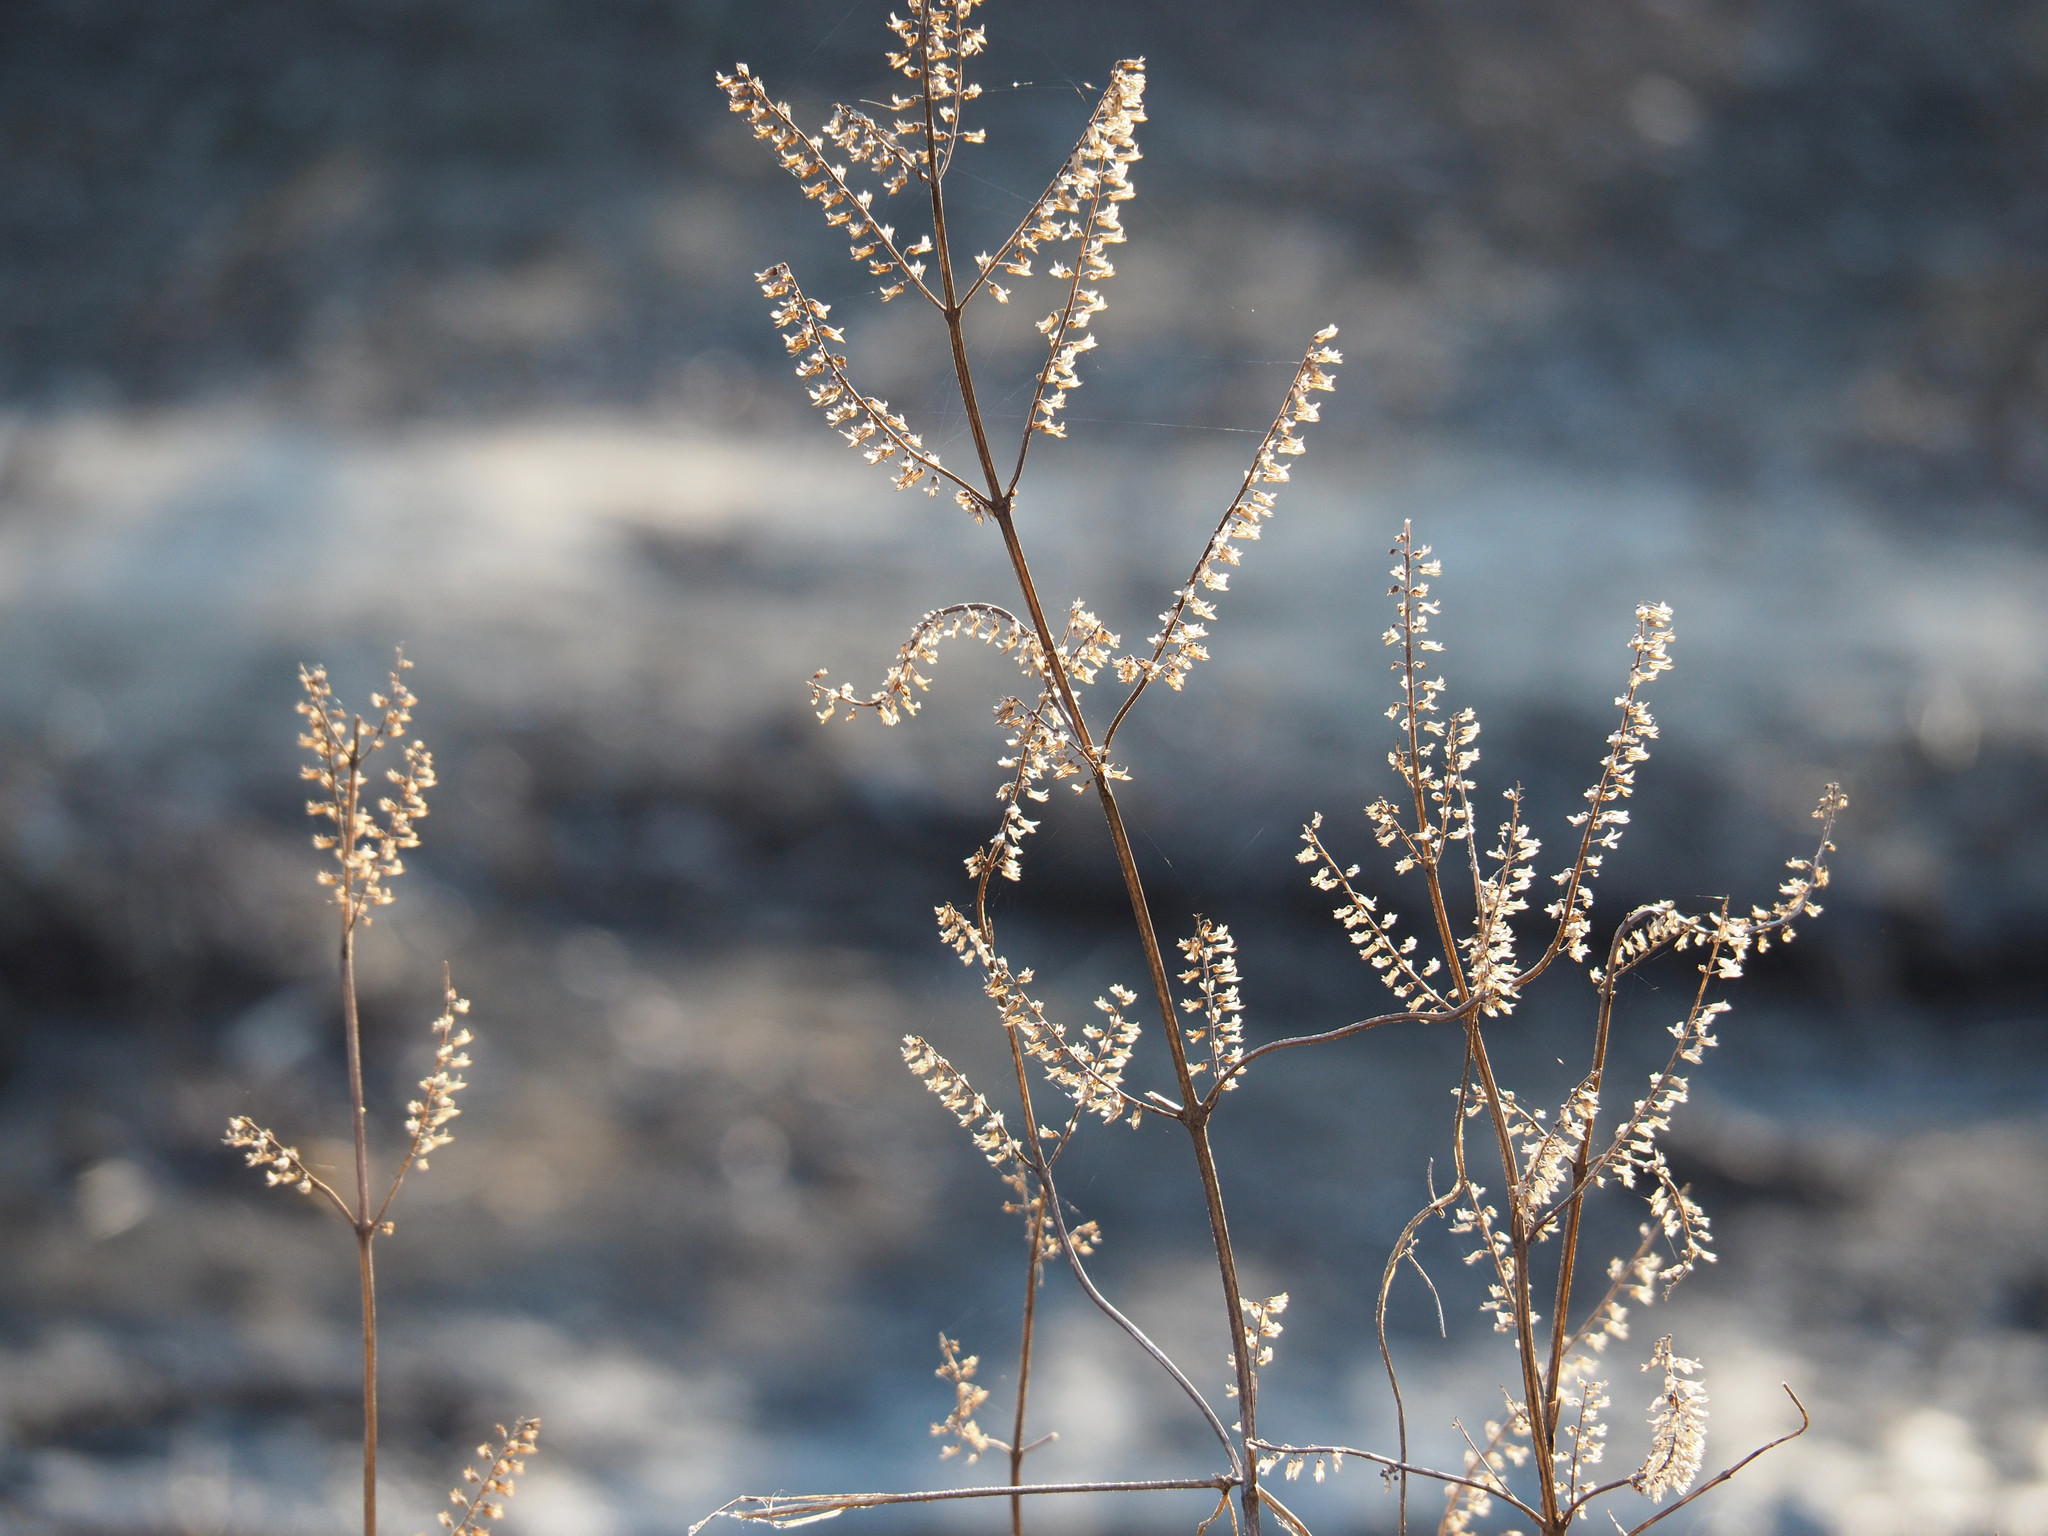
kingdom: Plantae
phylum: Tracheophyta
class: Magnoliopsida
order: Lamiales
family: Lamiaceae
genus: Perilla
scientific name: Perilla frutescens
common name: Perilla
